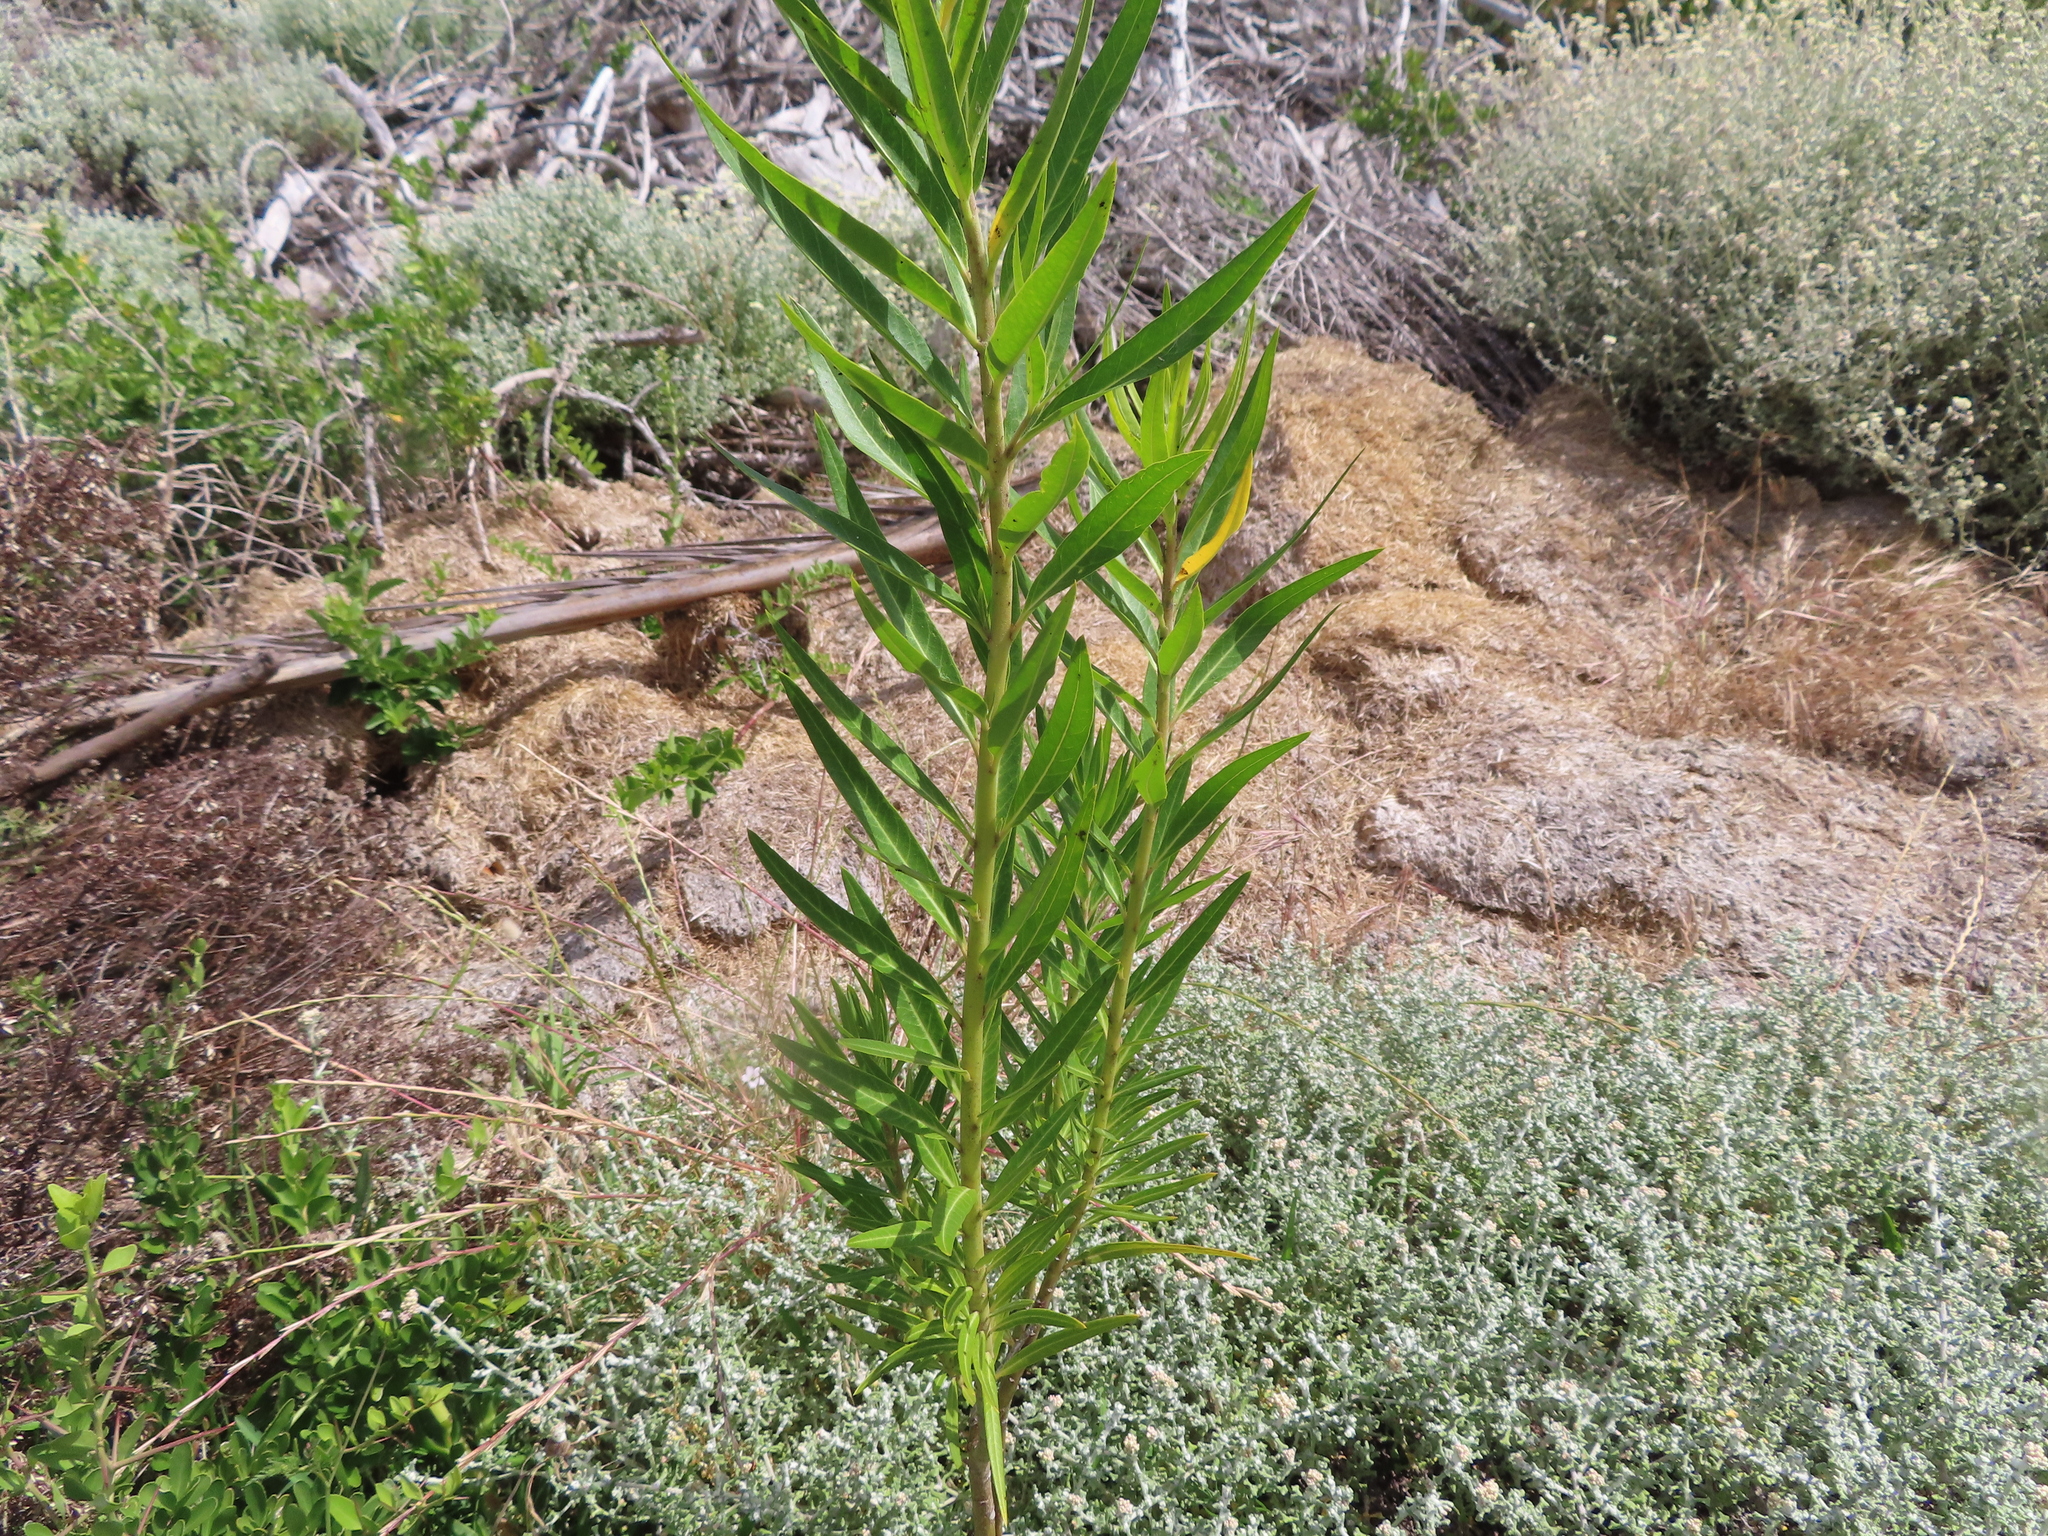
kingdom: Plantae
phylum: Tracheophyta
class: Magnoliopsida
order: Gentianales
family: Apocynaceae
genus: Gomphocarpus
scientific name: Gomphocarpus physocarpus
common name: Balloon cotton bush
